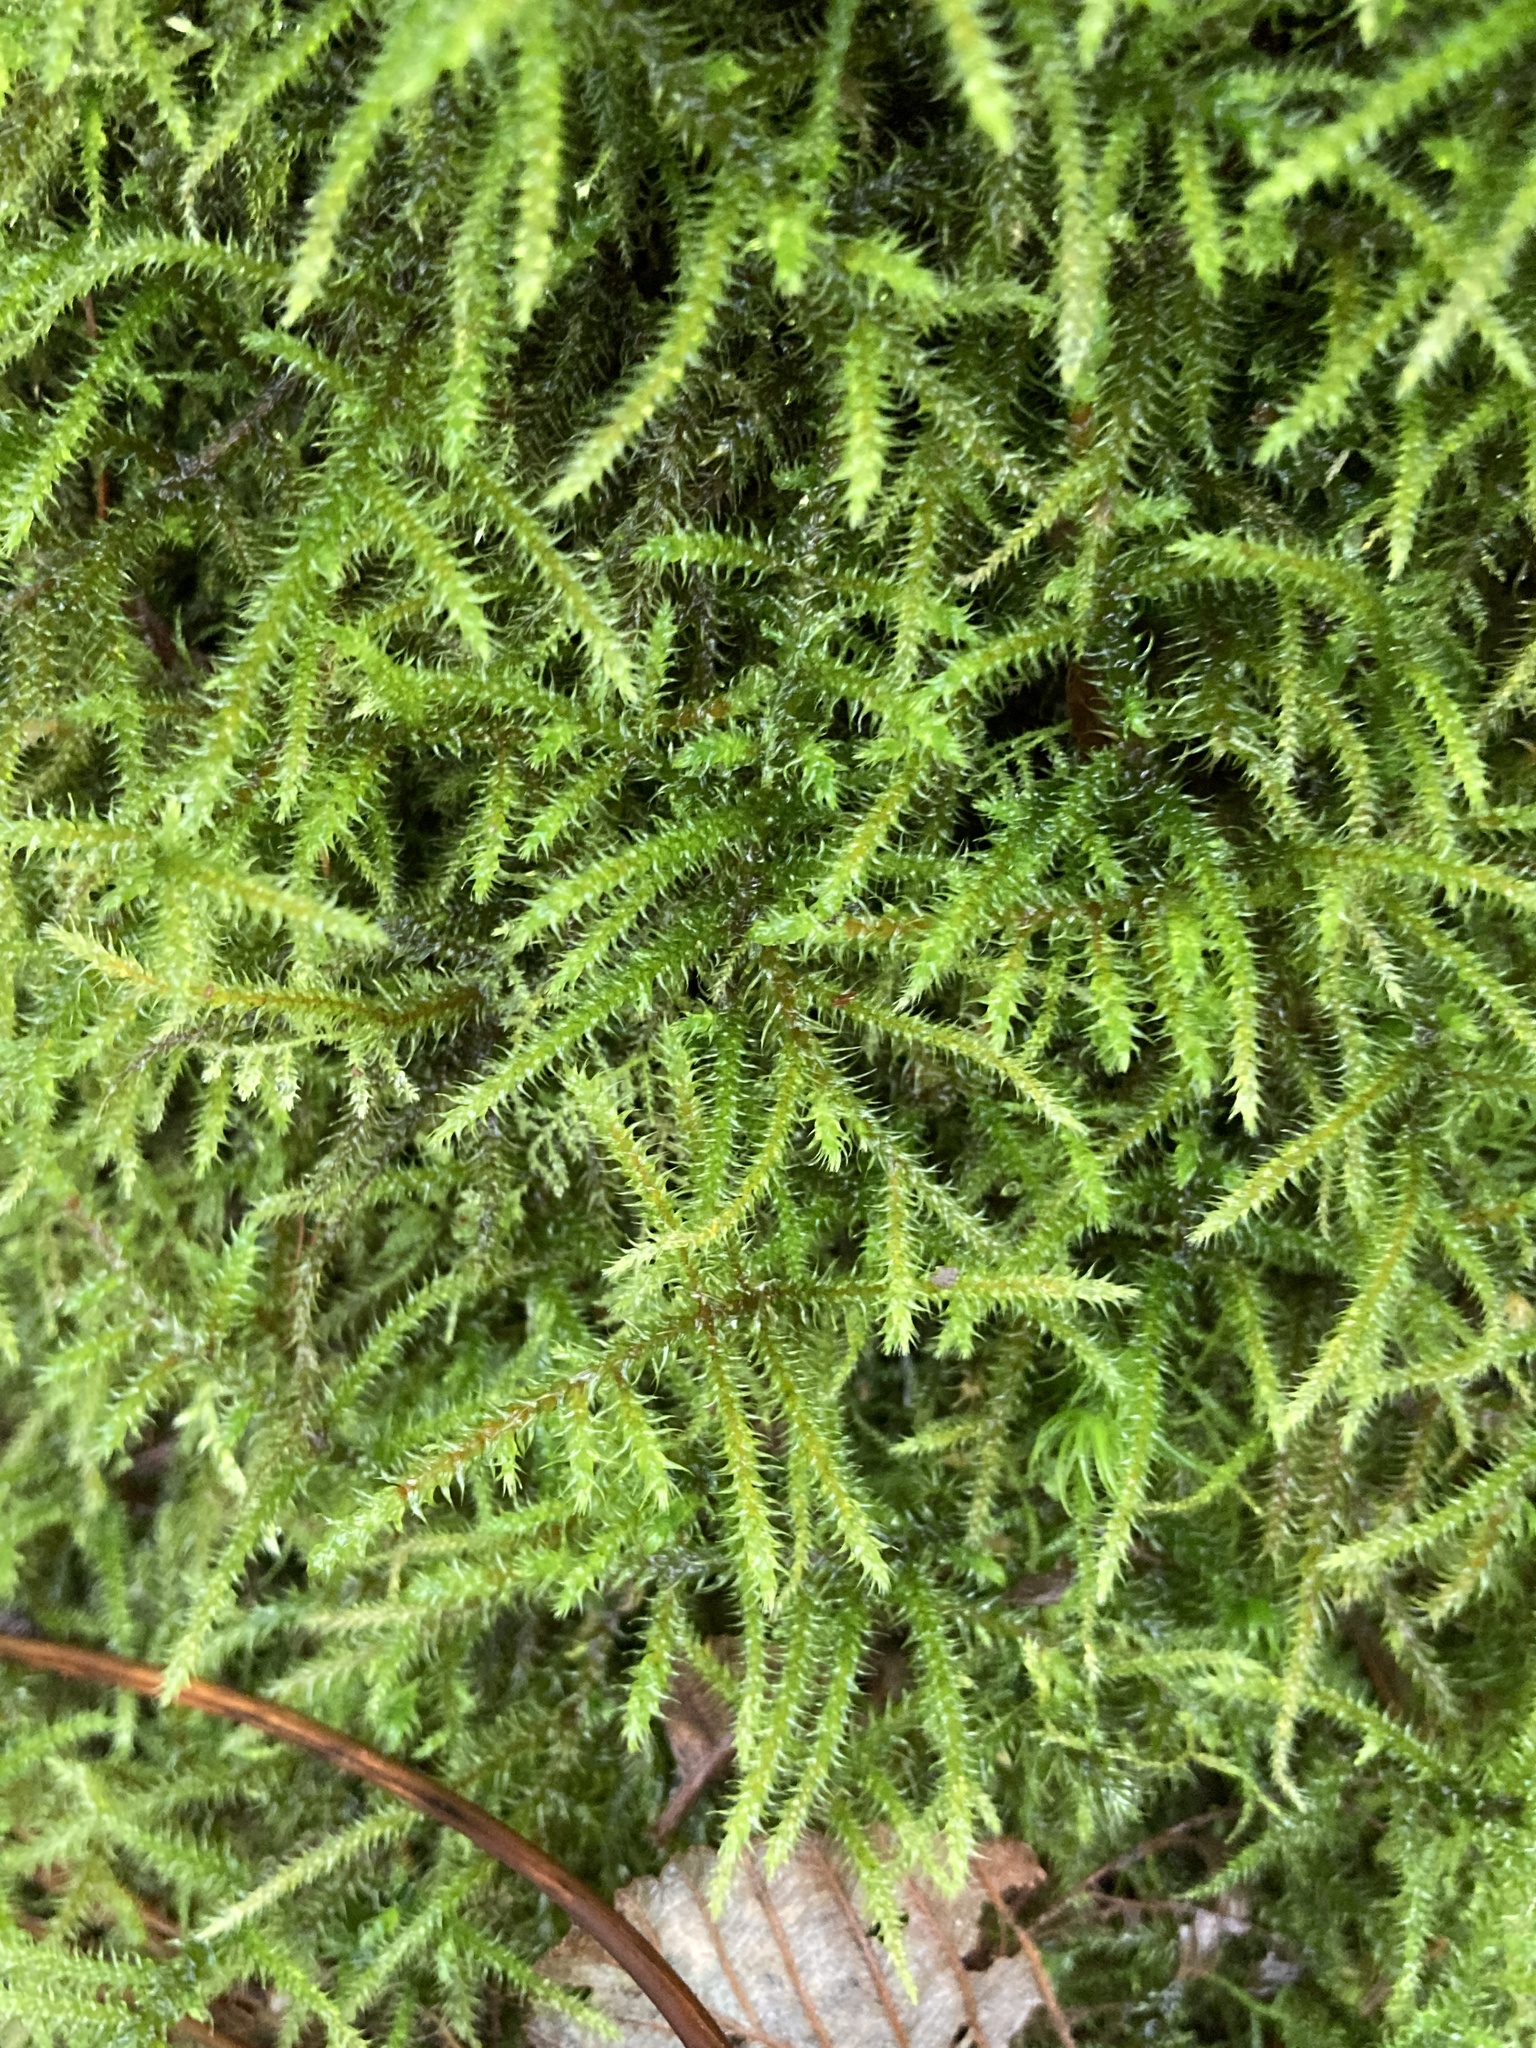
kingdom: Plantae
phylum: Bryophyta
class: Bryopsida
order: Hypnales
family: Hylocomiaceae
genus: Rhytidiadelphus
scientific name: Rhytidiadelphus loreus
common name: Lanky moss
